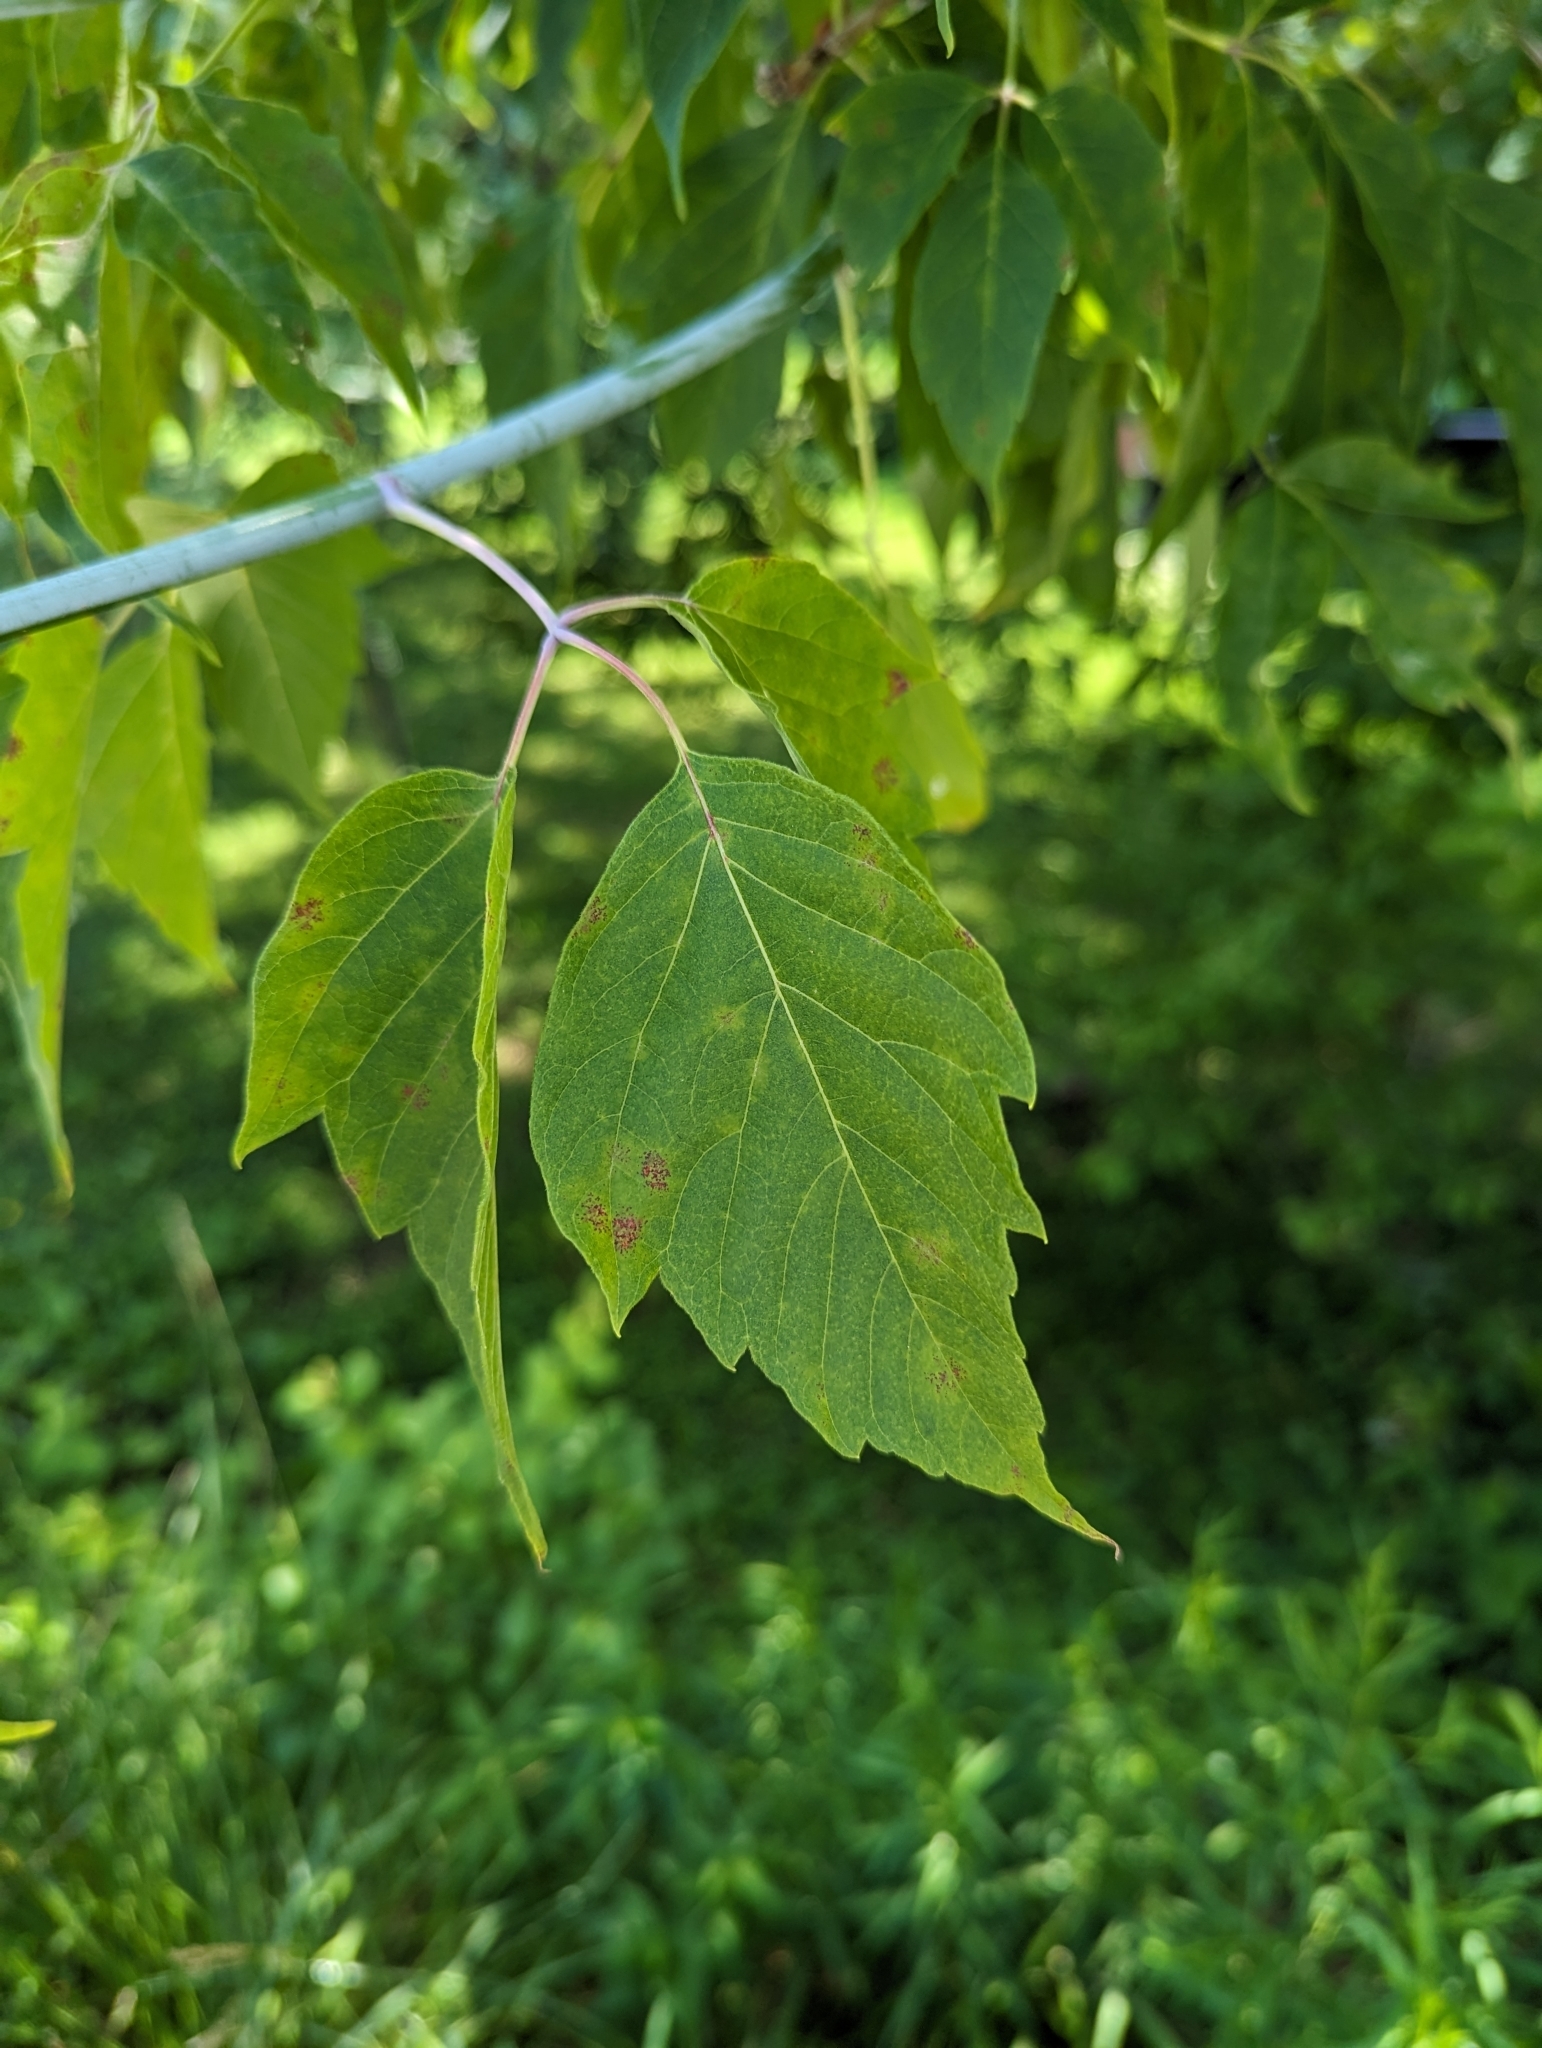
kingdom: Plantae
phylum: Tracheophyta
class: Magnoliopsida
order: Sapindales
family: Sapindaceae
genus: Acer
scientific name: Acer negundo
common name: Ashleaf maple
